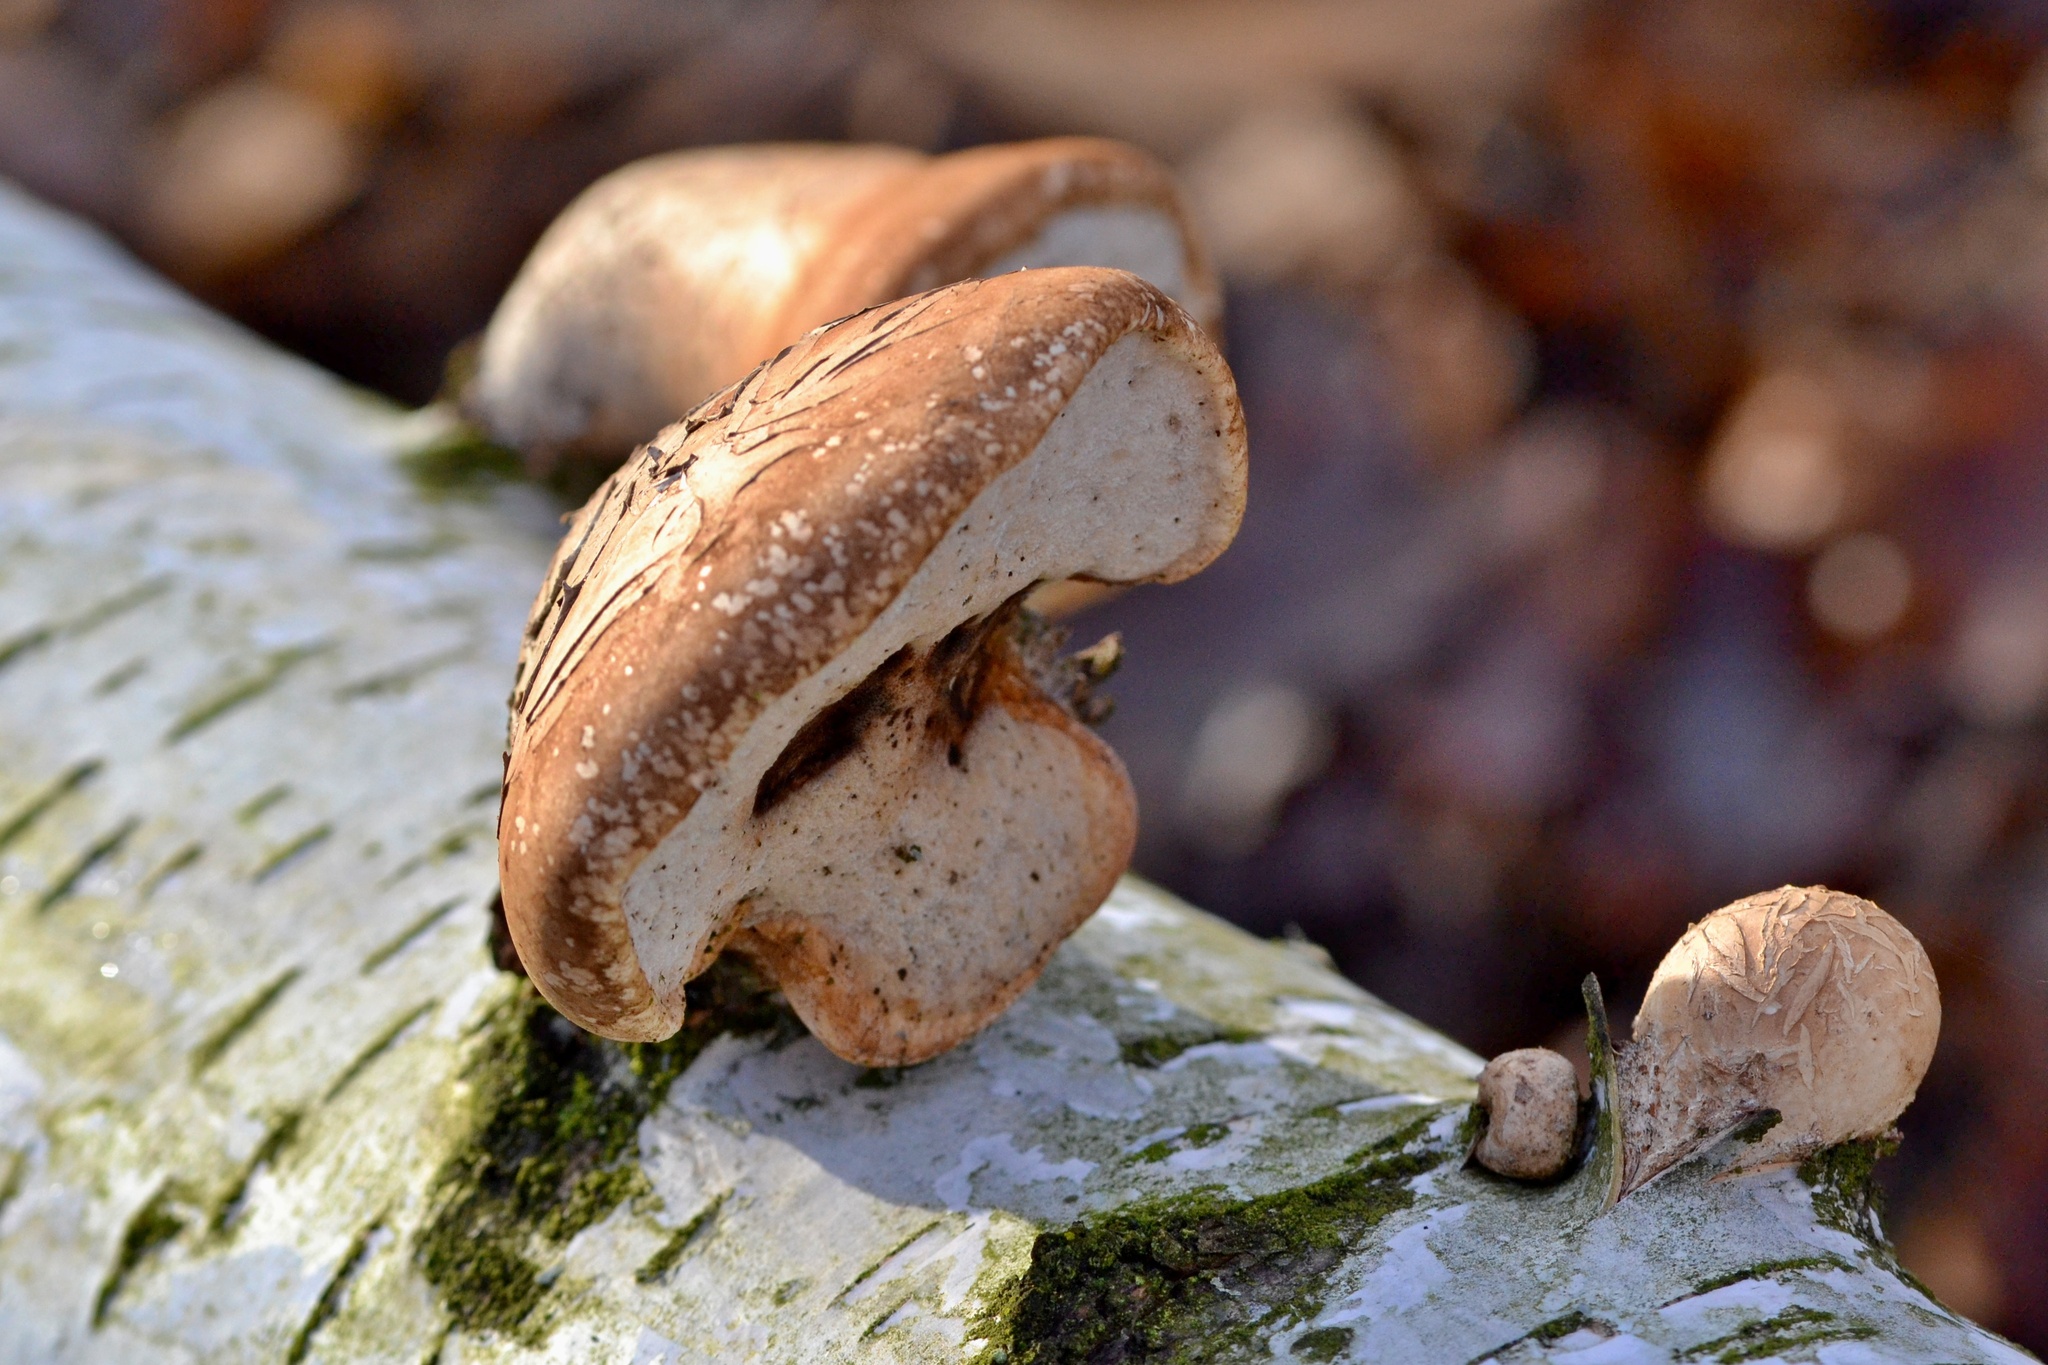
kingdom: Fungi
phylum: Basidiomycota
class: Agaricomycetes
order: Polyporales
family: Fomitopsidaceae
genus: Fomitopsis
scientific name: Fomitopsis betulina
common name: Birch polypore
